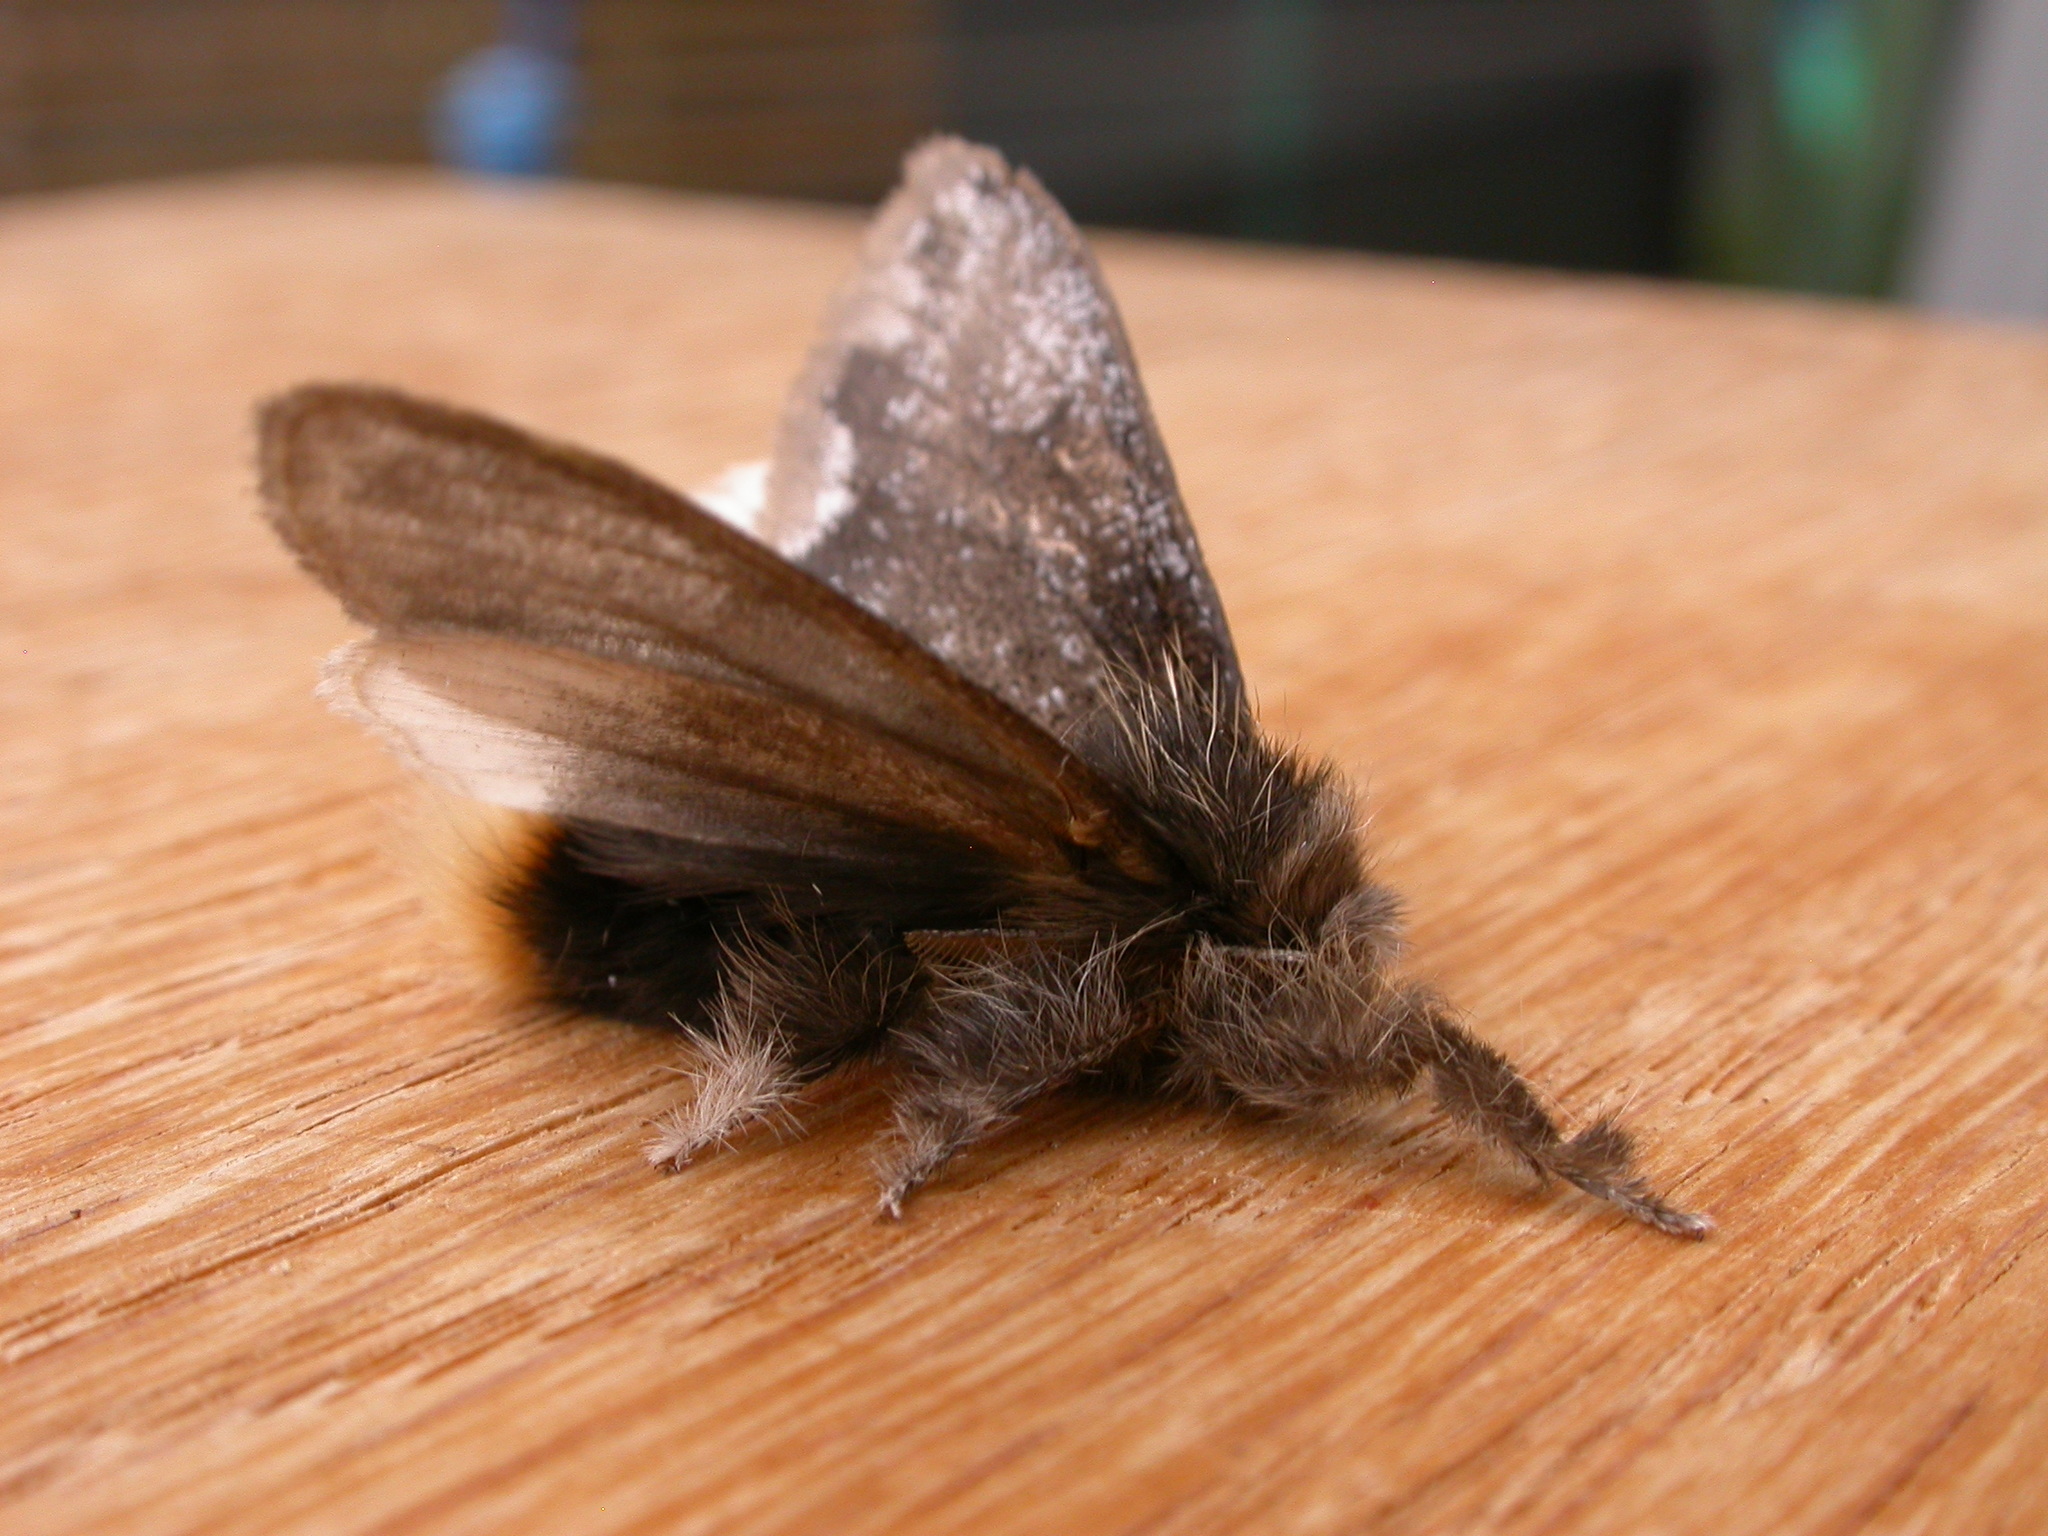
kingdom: Animalia
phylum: Arthropoda
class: Insecta
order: Lepidoptera
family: Erebidae
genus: Euproctis
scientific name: Euproctis
